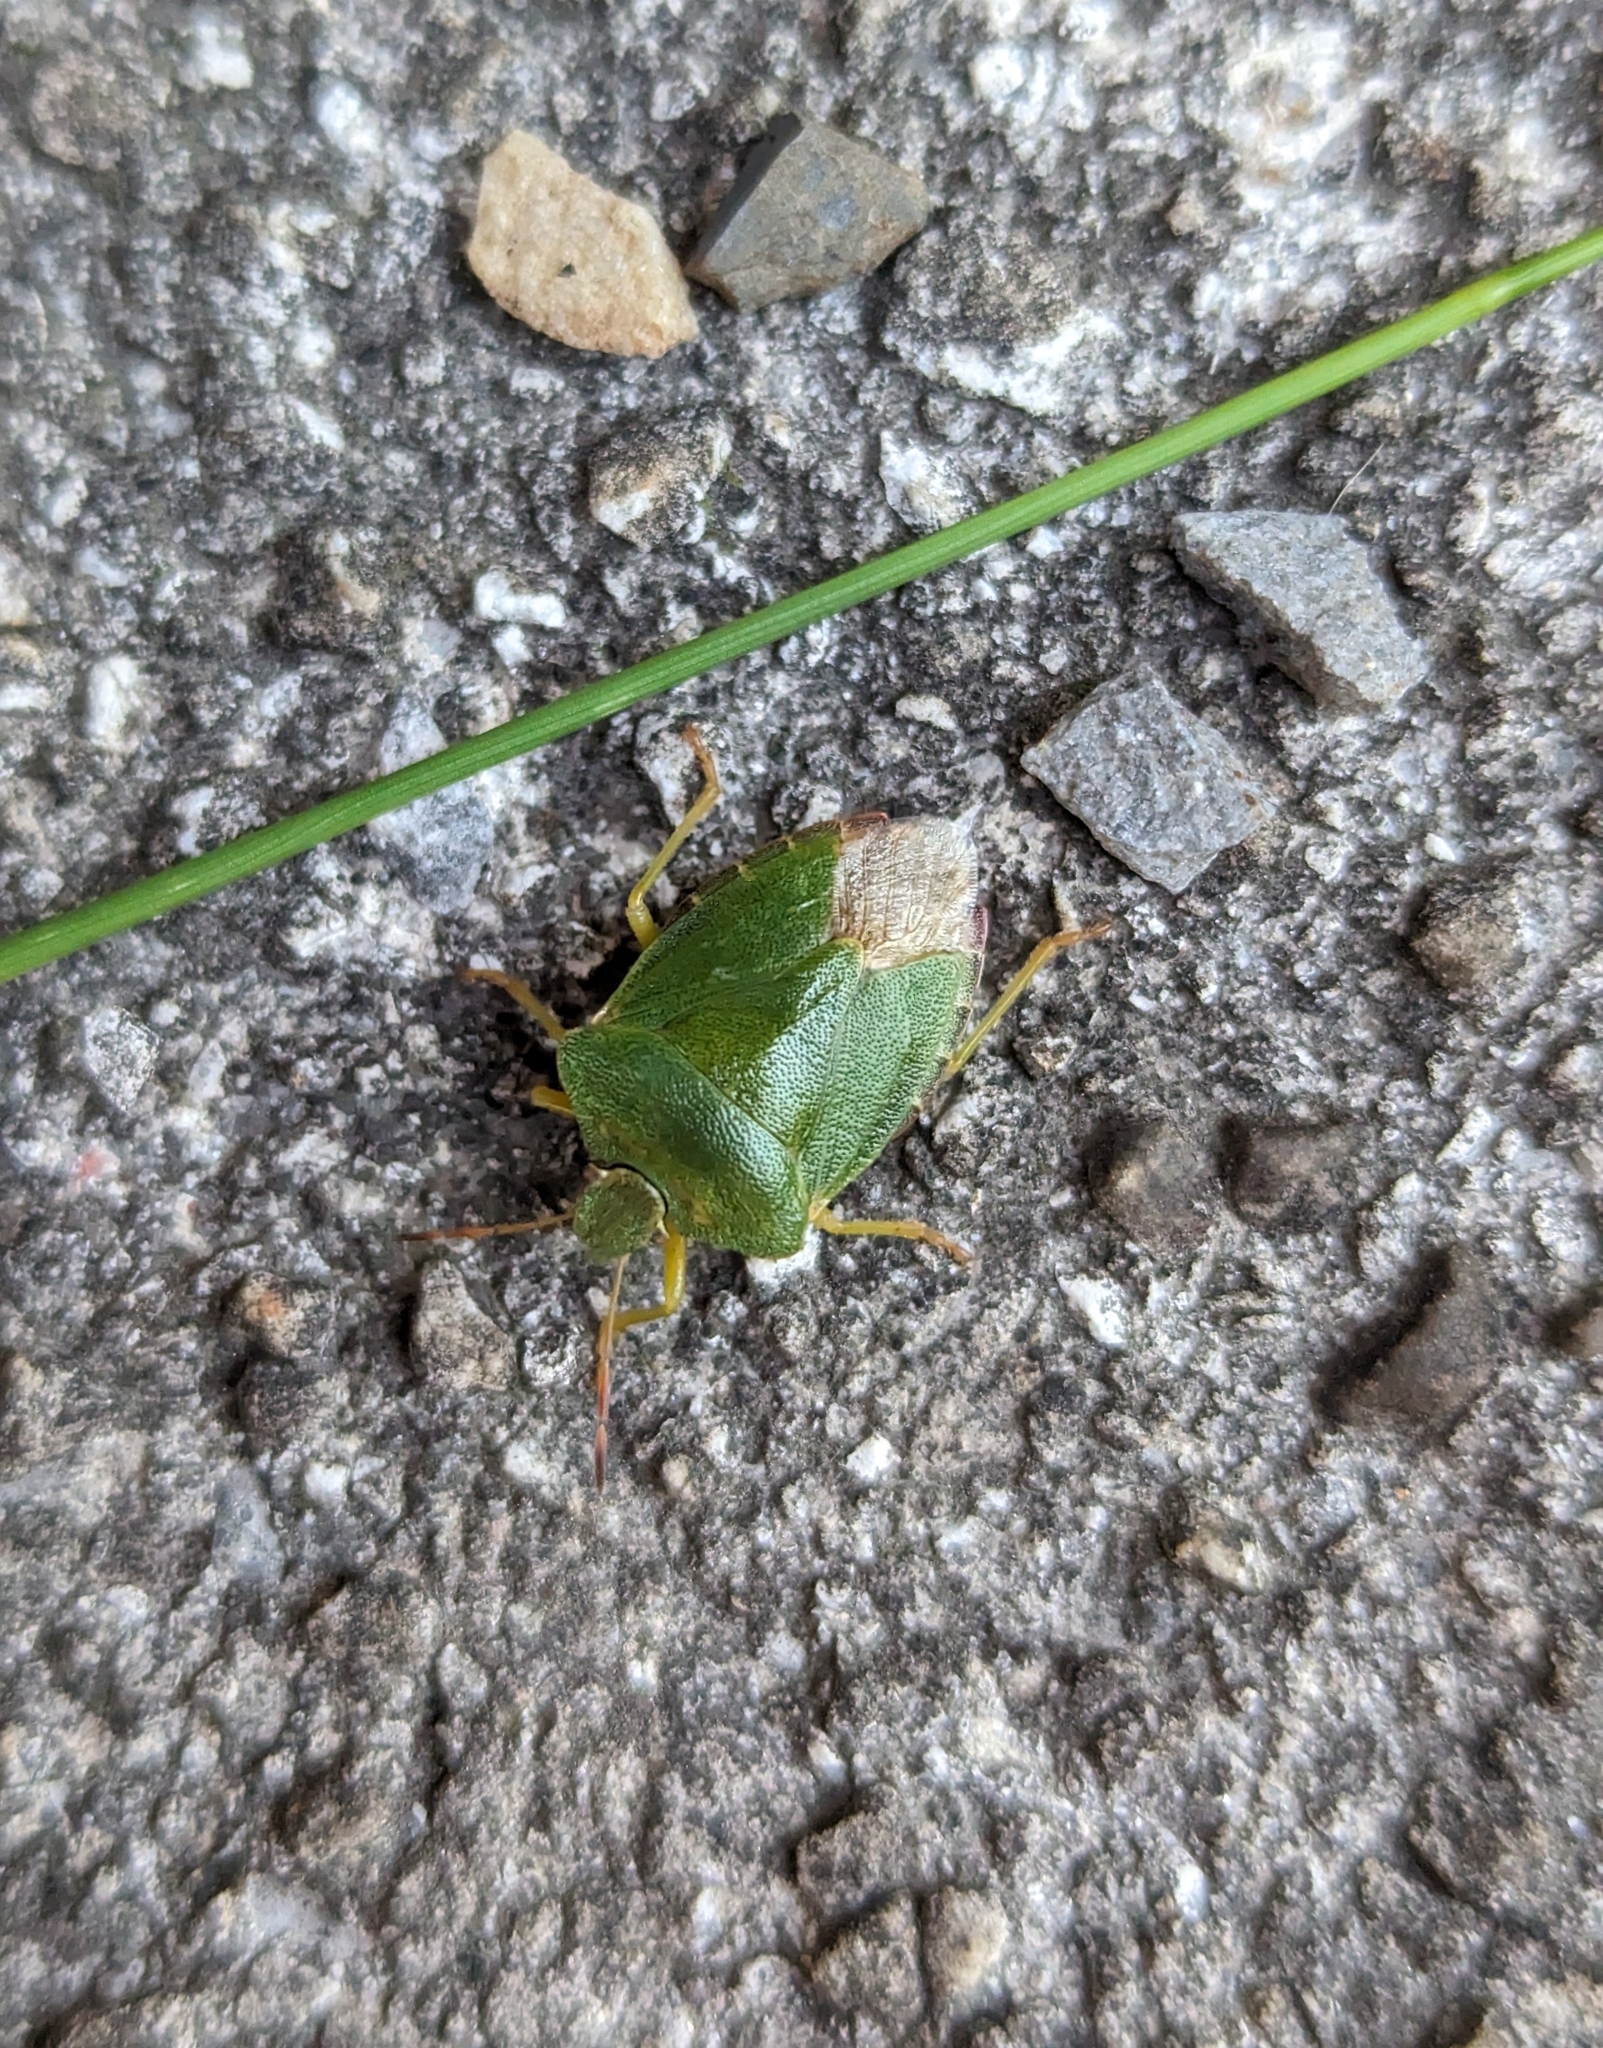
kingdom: Animalia
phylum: Arthropoda
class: Insecta
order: Hemiptera
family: Pentatomidae
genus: Palomena
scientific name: Palomena prasina
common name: Green shieldbug
